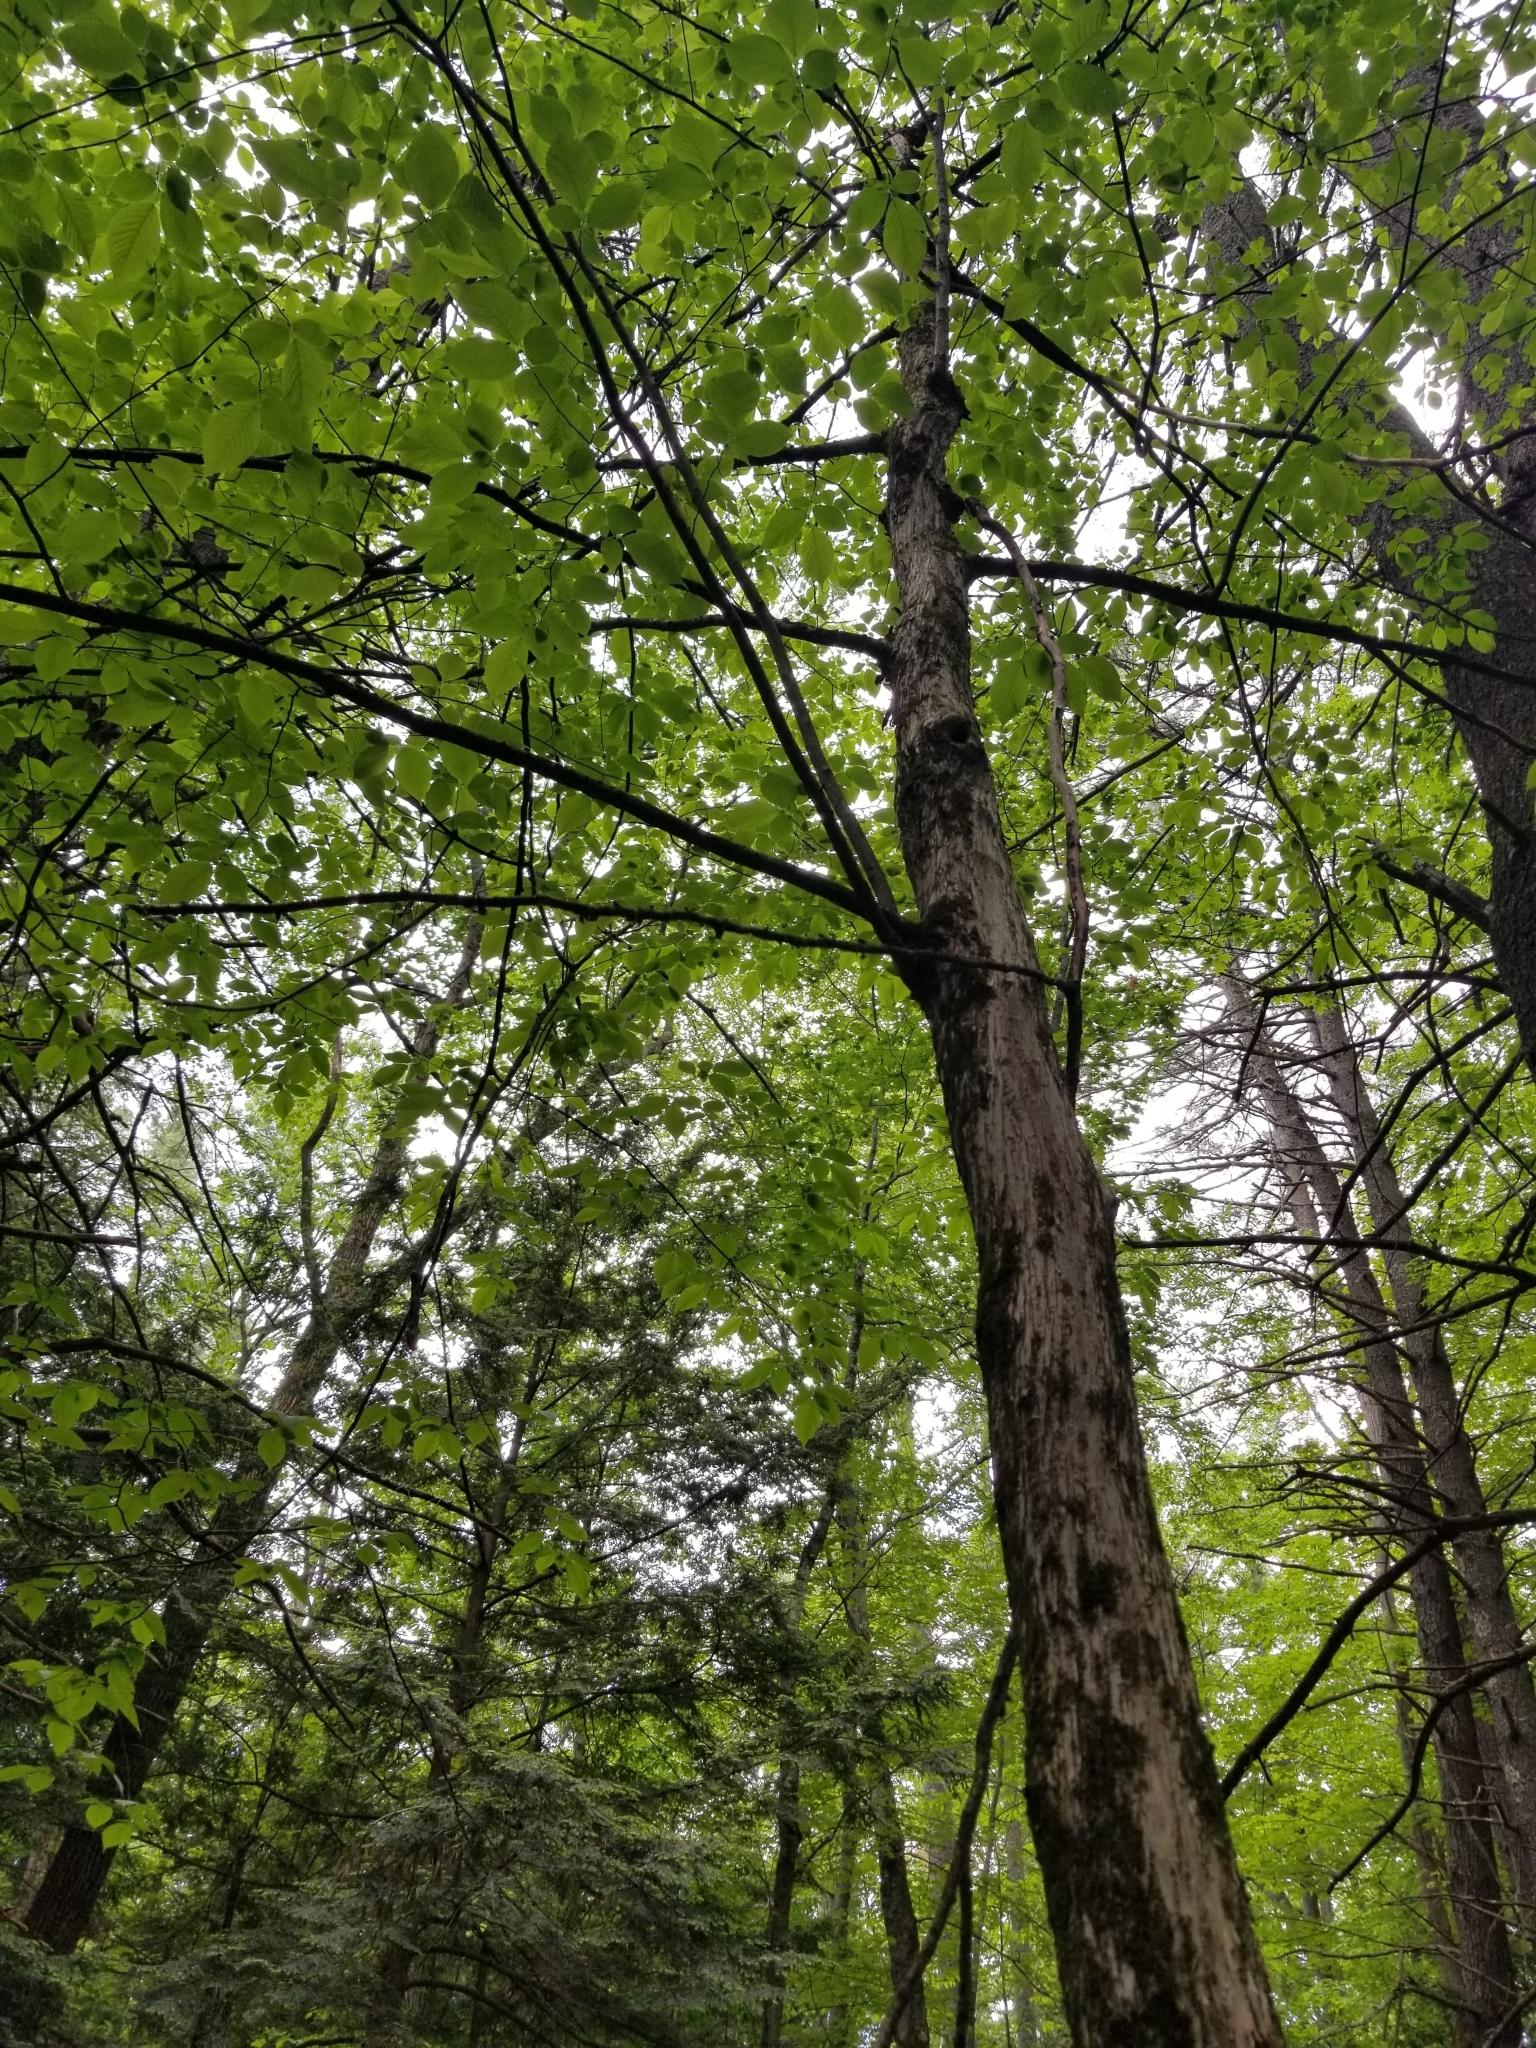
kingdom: Plantae
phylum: Tracheophyta
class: Magnoliopsida
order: Fagales
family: Betulaceae
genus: Ostrya
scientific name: Ostrya virginiana
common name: Ironwood
